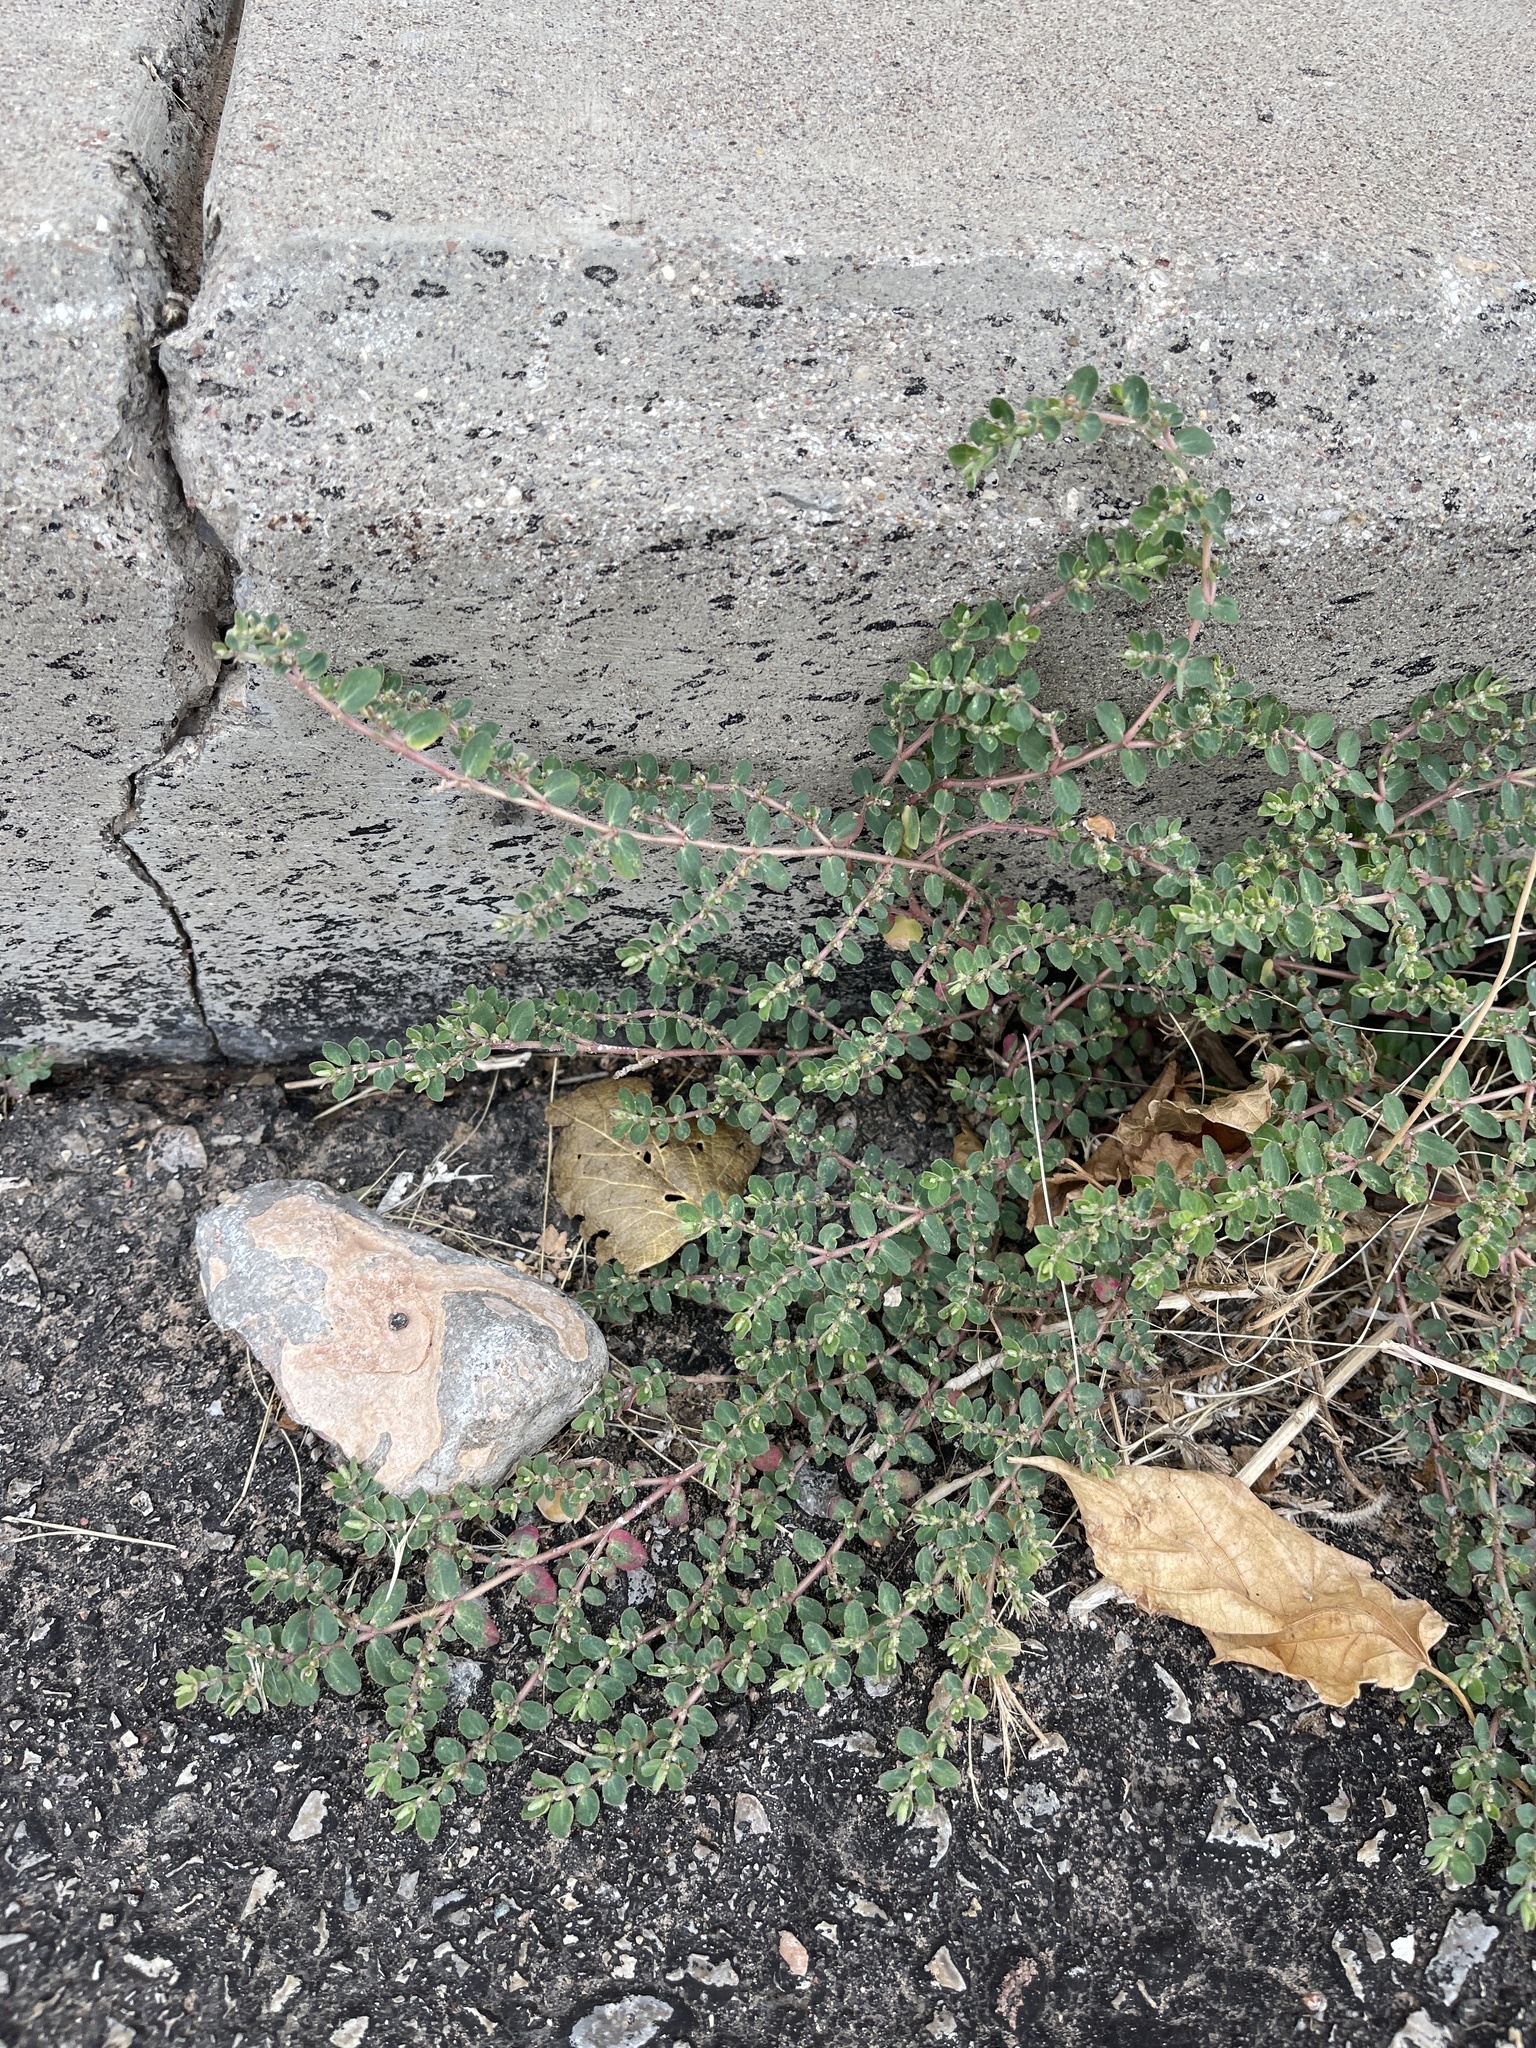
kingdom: Plantae
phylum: Tracheophyta
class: Magnoliopsida
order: Malpighiales
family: Euphorbiaceae
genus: Euphorbia
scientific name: Euphorbia prostrata
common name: Prostrate sandmat
